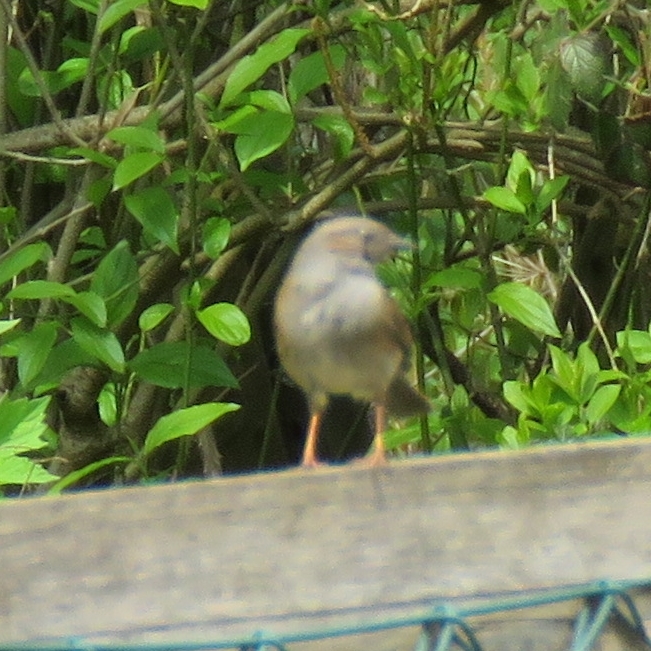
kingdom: Animalia
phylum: Chordata
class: Aves
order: Passeriformes
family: Prunellidae
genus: Prunella
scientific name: Prunella modularis
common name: Dunnock
